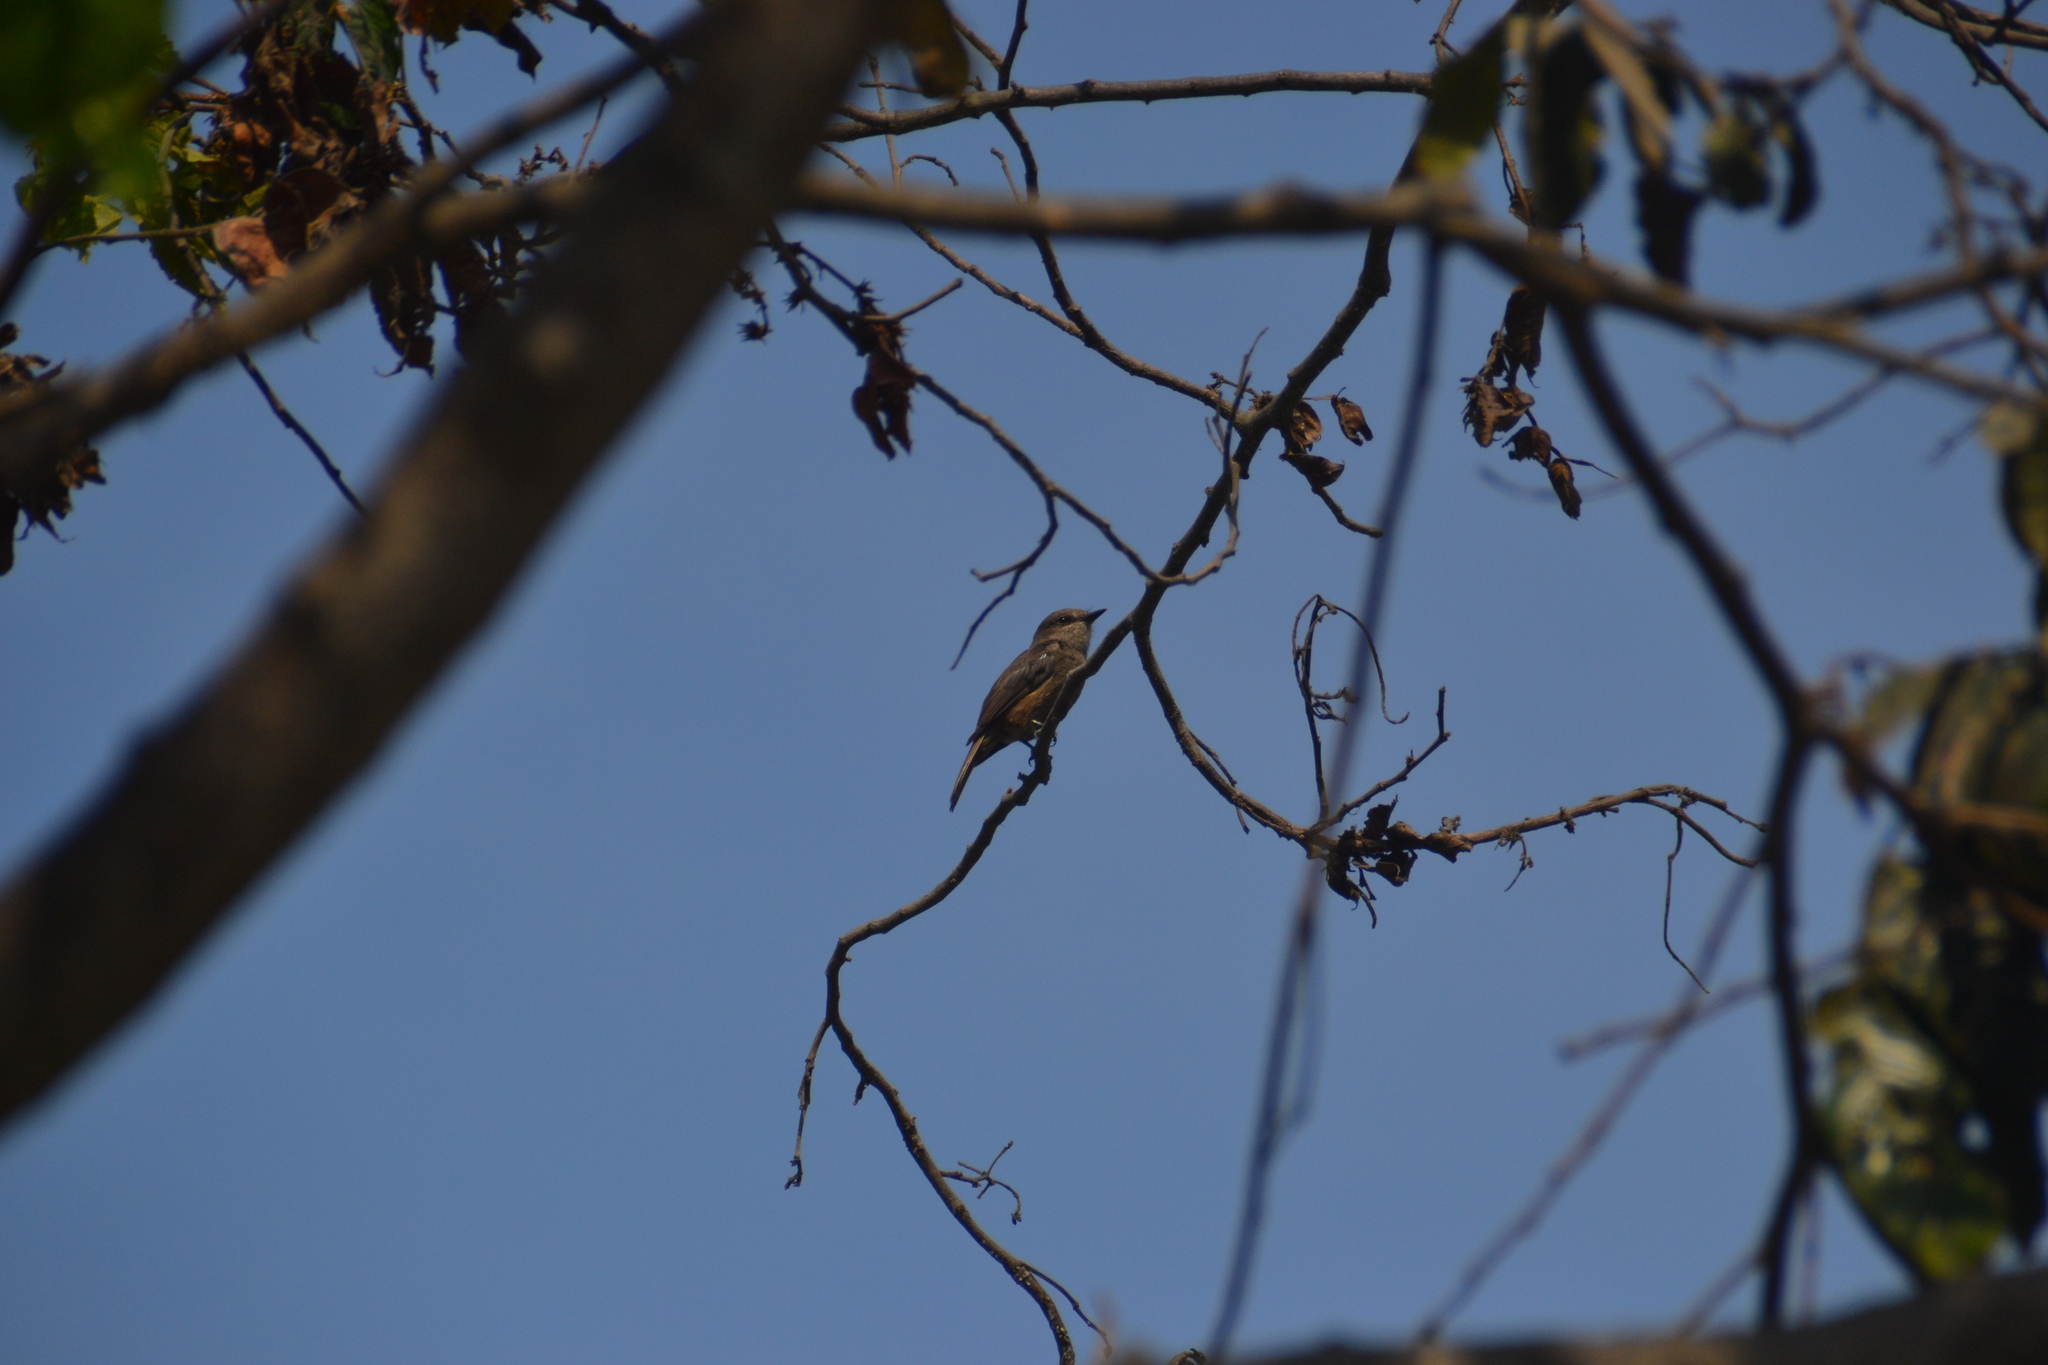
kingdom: Animalia
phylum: Chordata
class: Aves
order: Passeriformes
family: Tyrannidae
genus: Pyrocephalus
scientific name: Pyrocephalus rubinus
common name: Vermilion flycatcher
